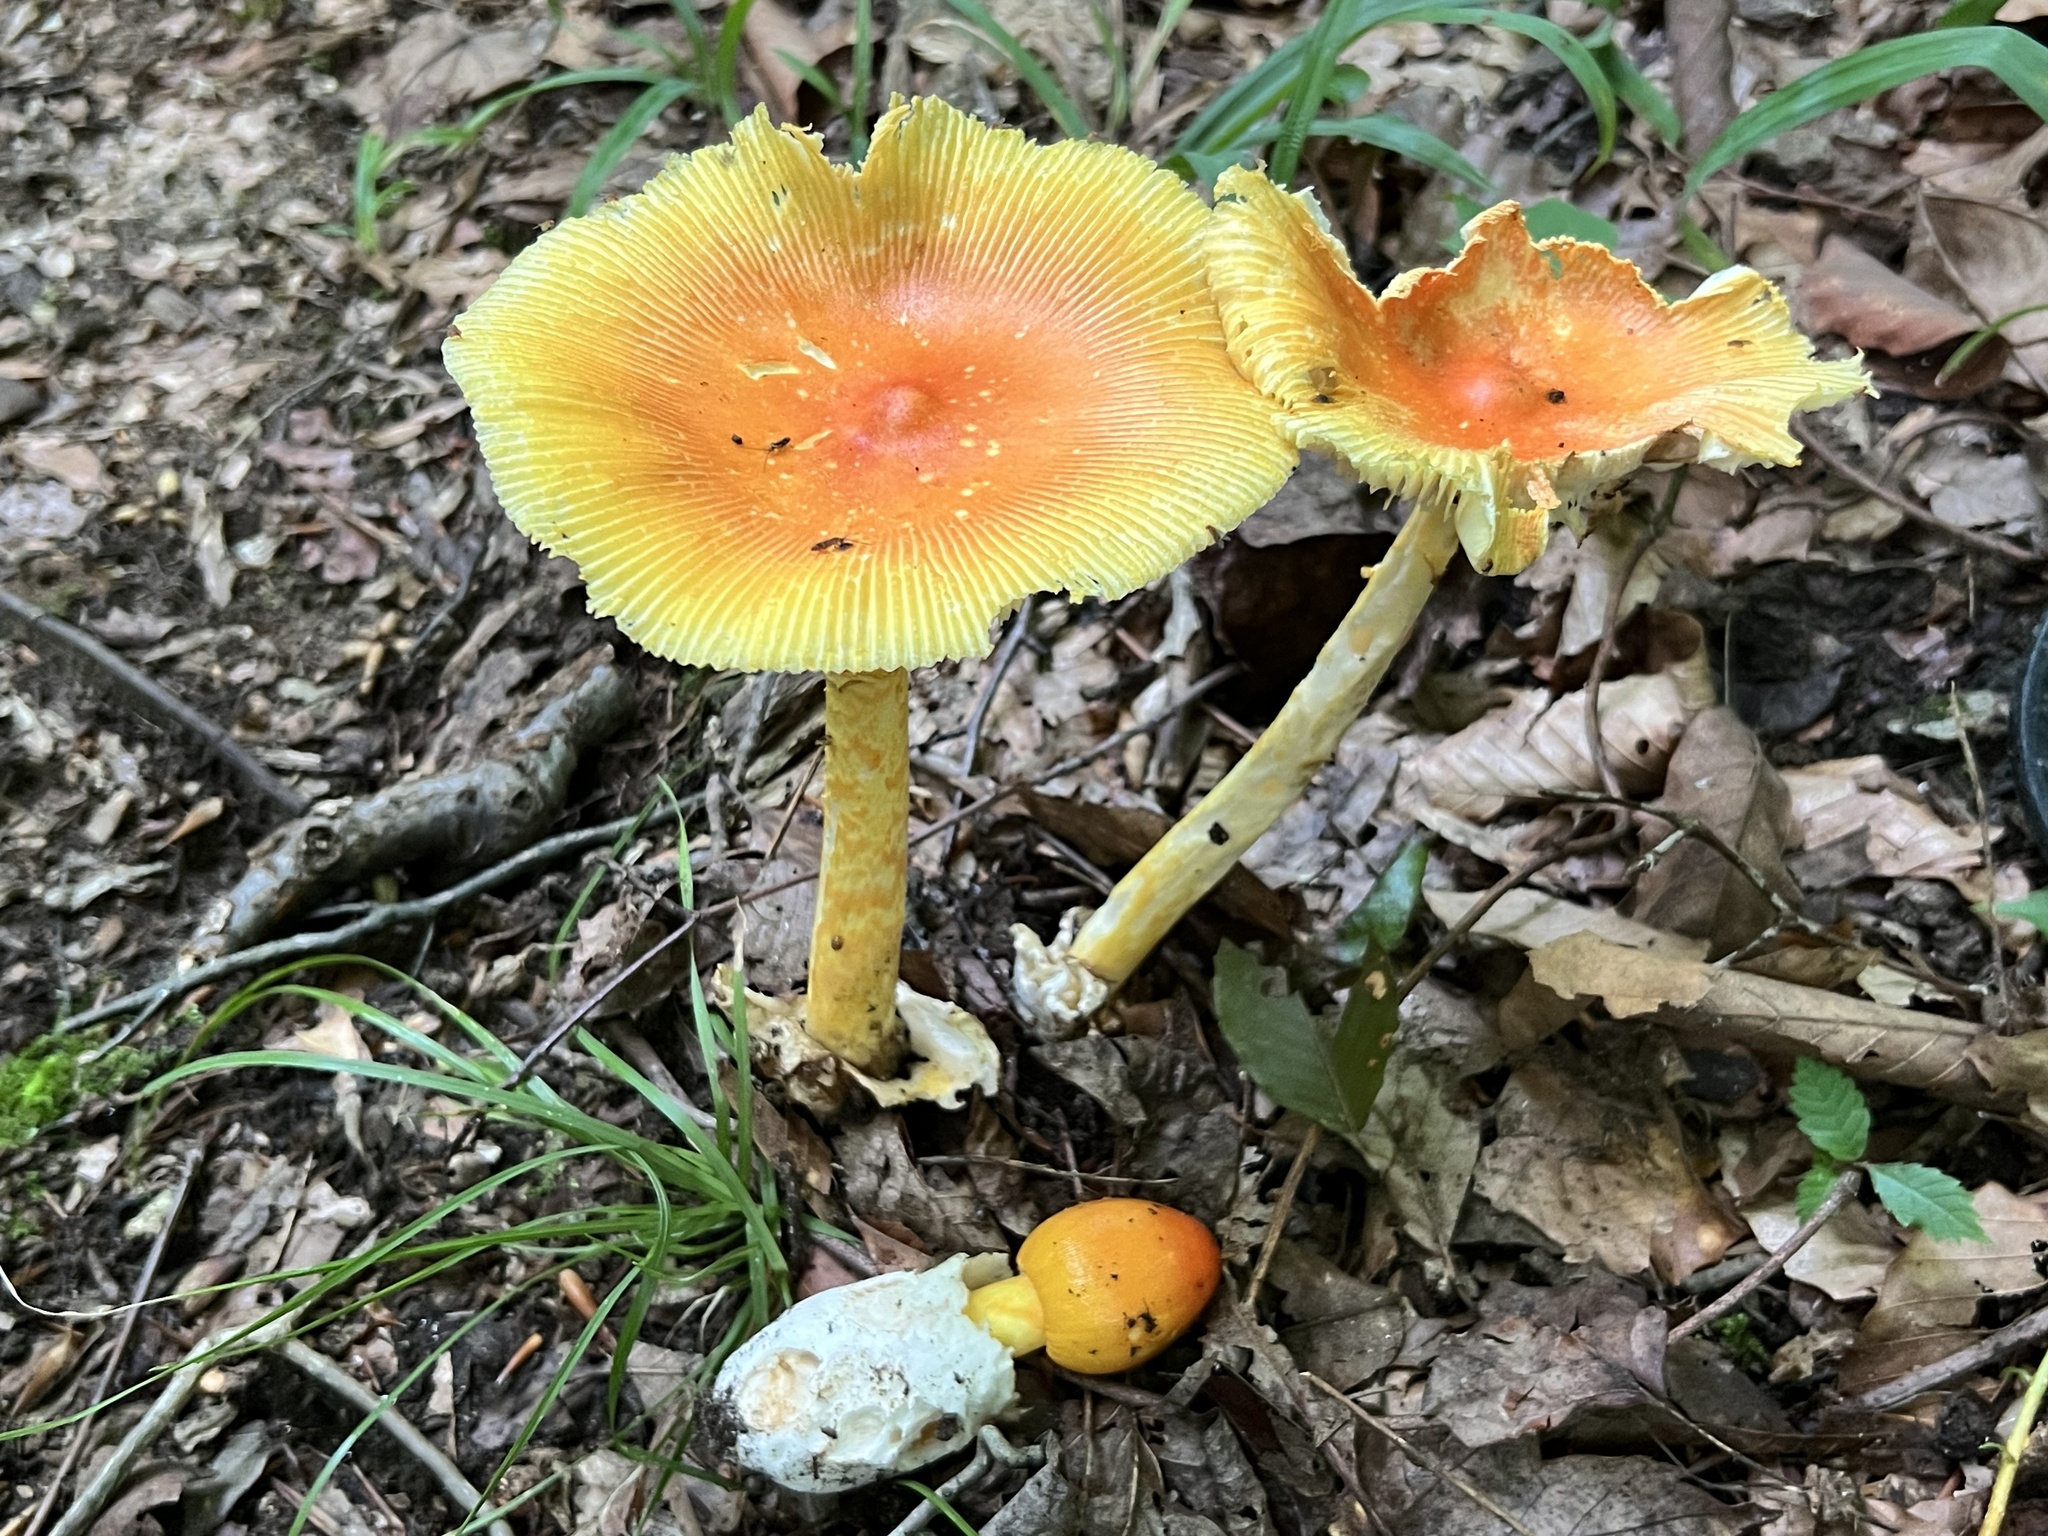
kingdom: Fungi
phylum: Basidiomycota
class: Agaricomycetes
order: Agaricales
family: Amanitaceae
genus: Amanita
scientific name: Amanita arkansana
